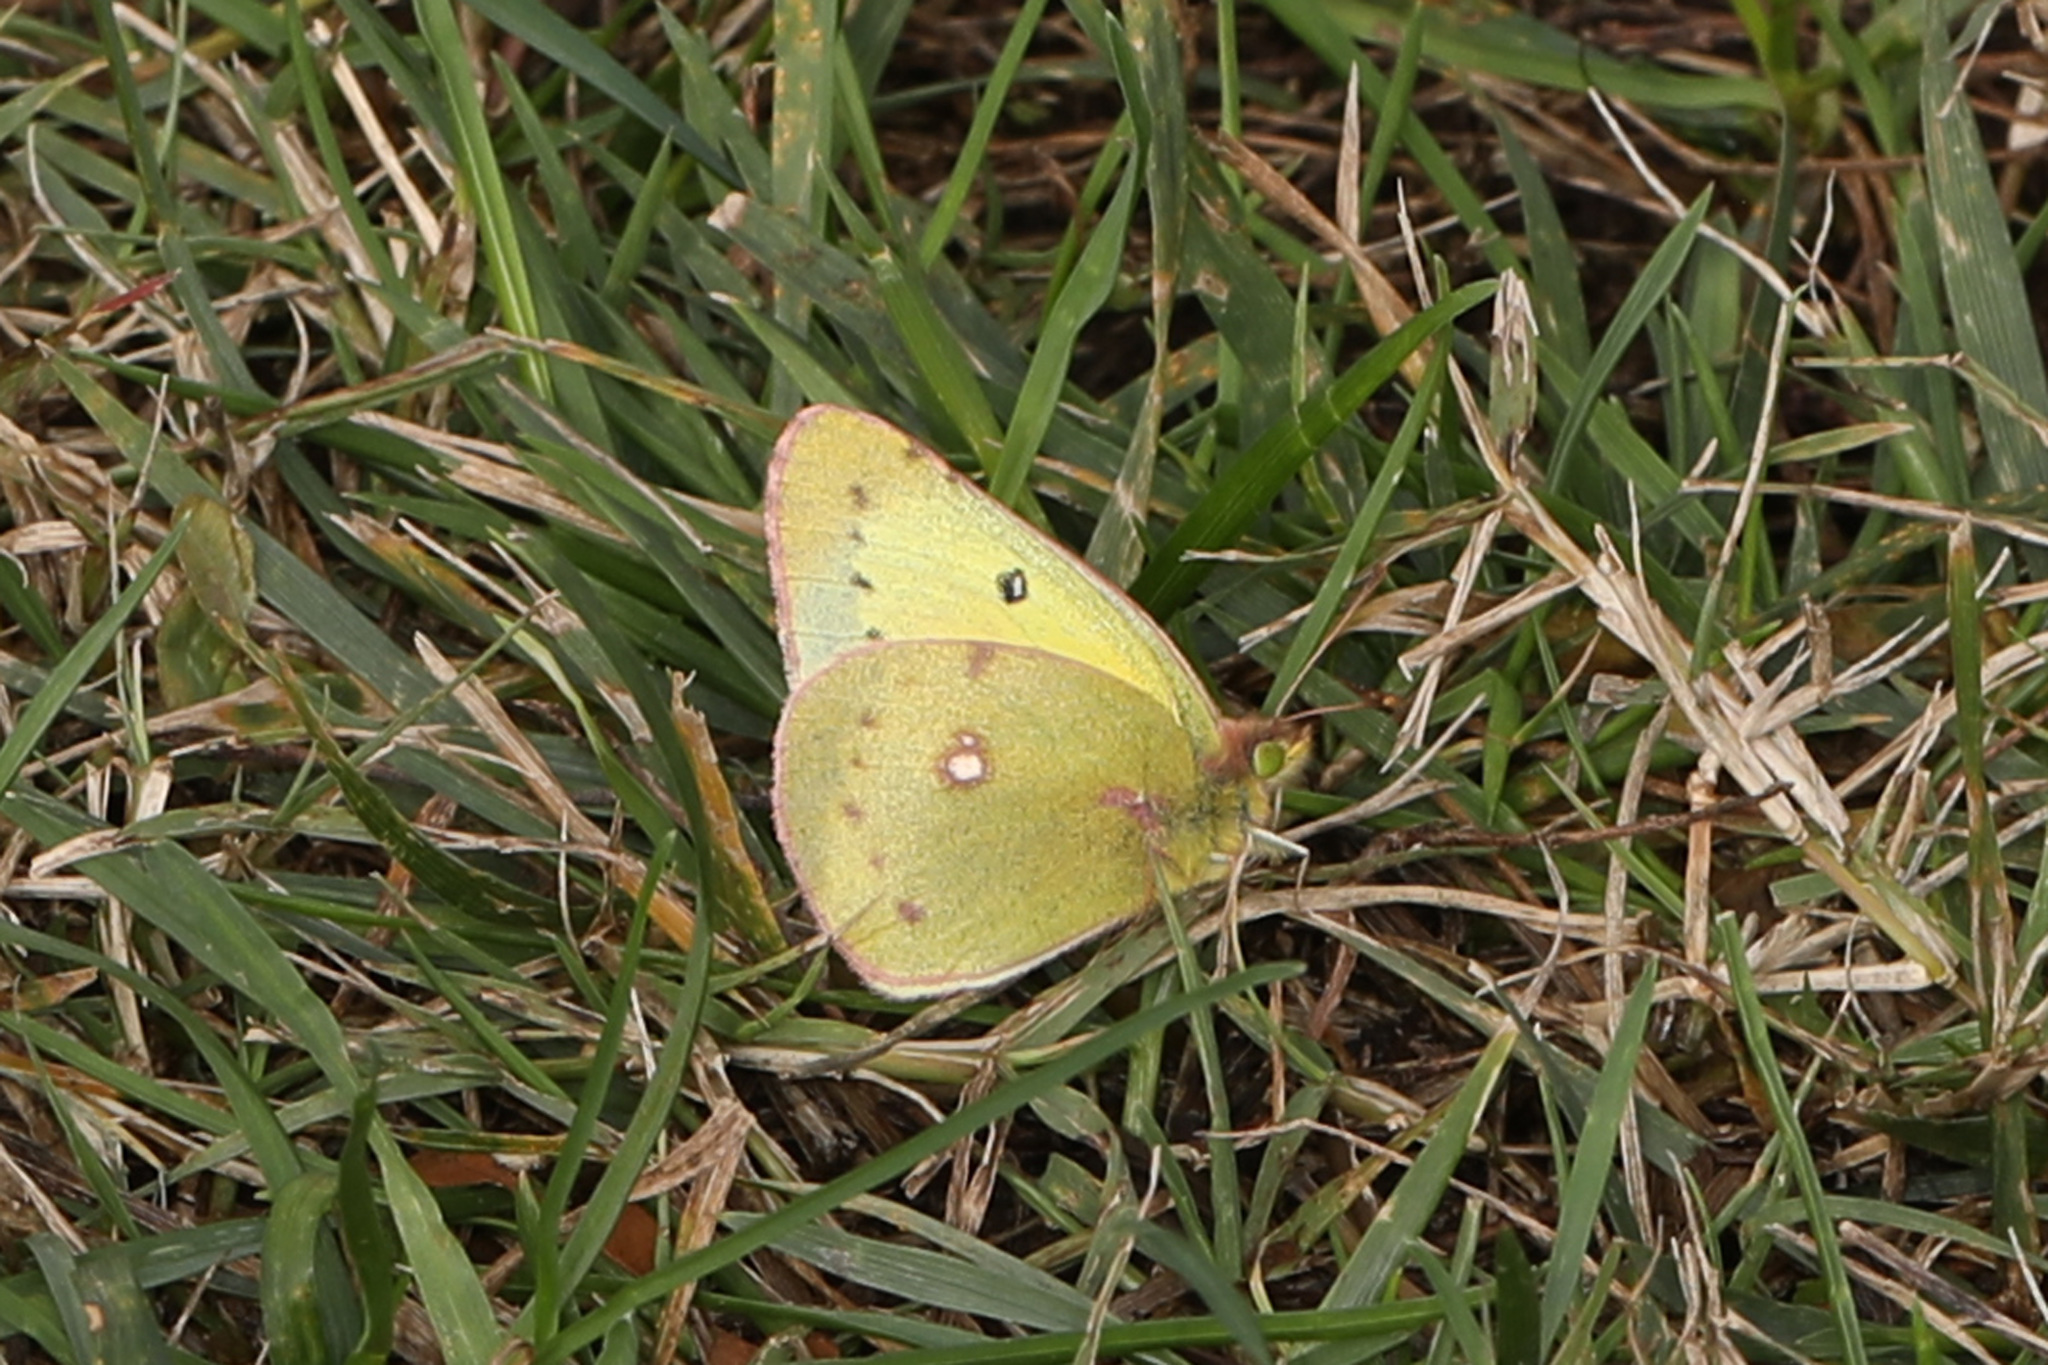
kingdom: Animalia
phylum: Arthropoda
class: Insecta
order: Lepidoptera
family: Pieridae
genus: Colias
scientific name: Colias philodice
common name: Clouded sulphur
